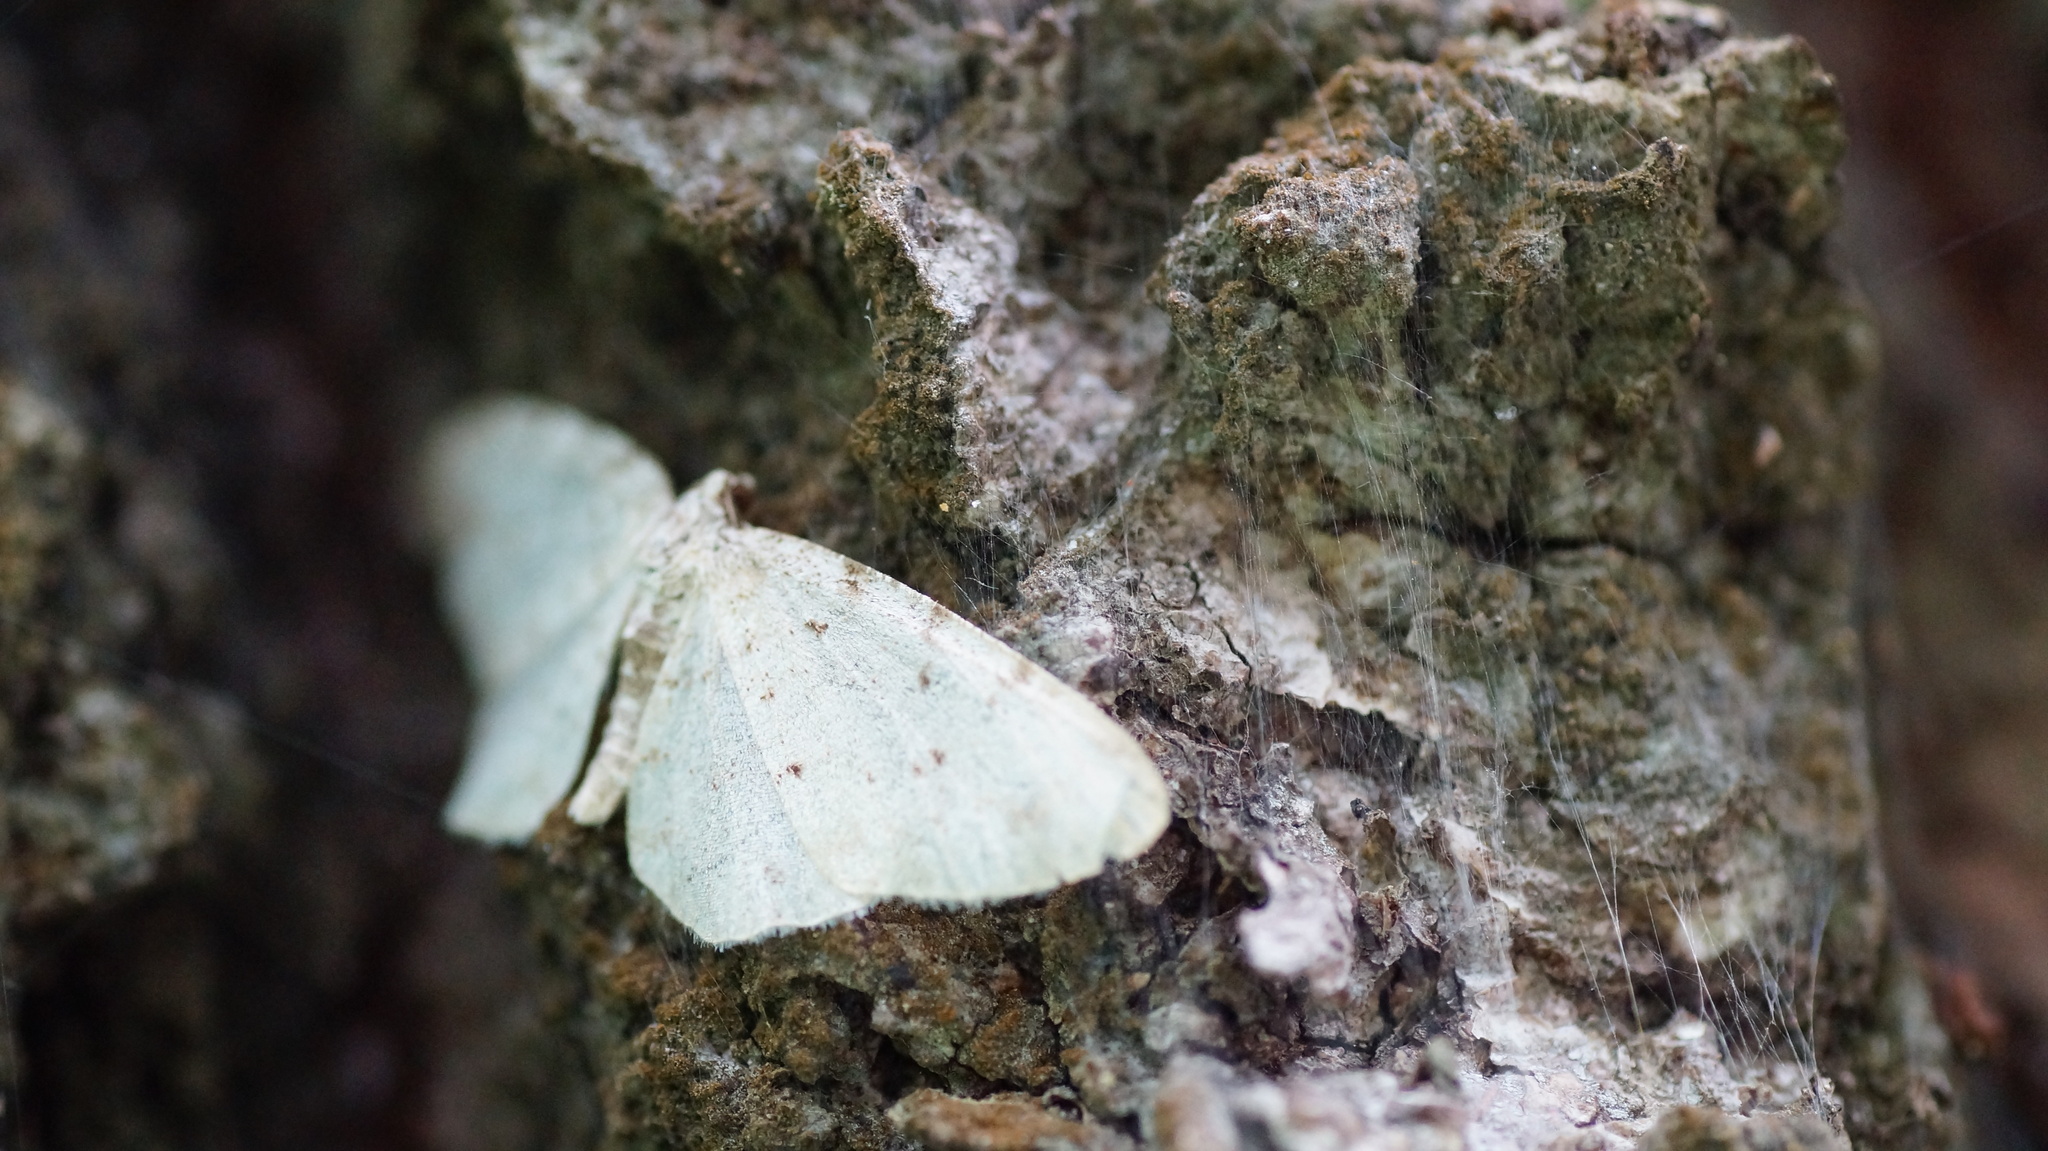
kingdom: Animalia
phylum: Arthropoda
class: Insecta
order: Lepidoptera
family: Geometridae
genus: Aethalura
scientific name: Aethalura punctulata
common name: Grey birch
